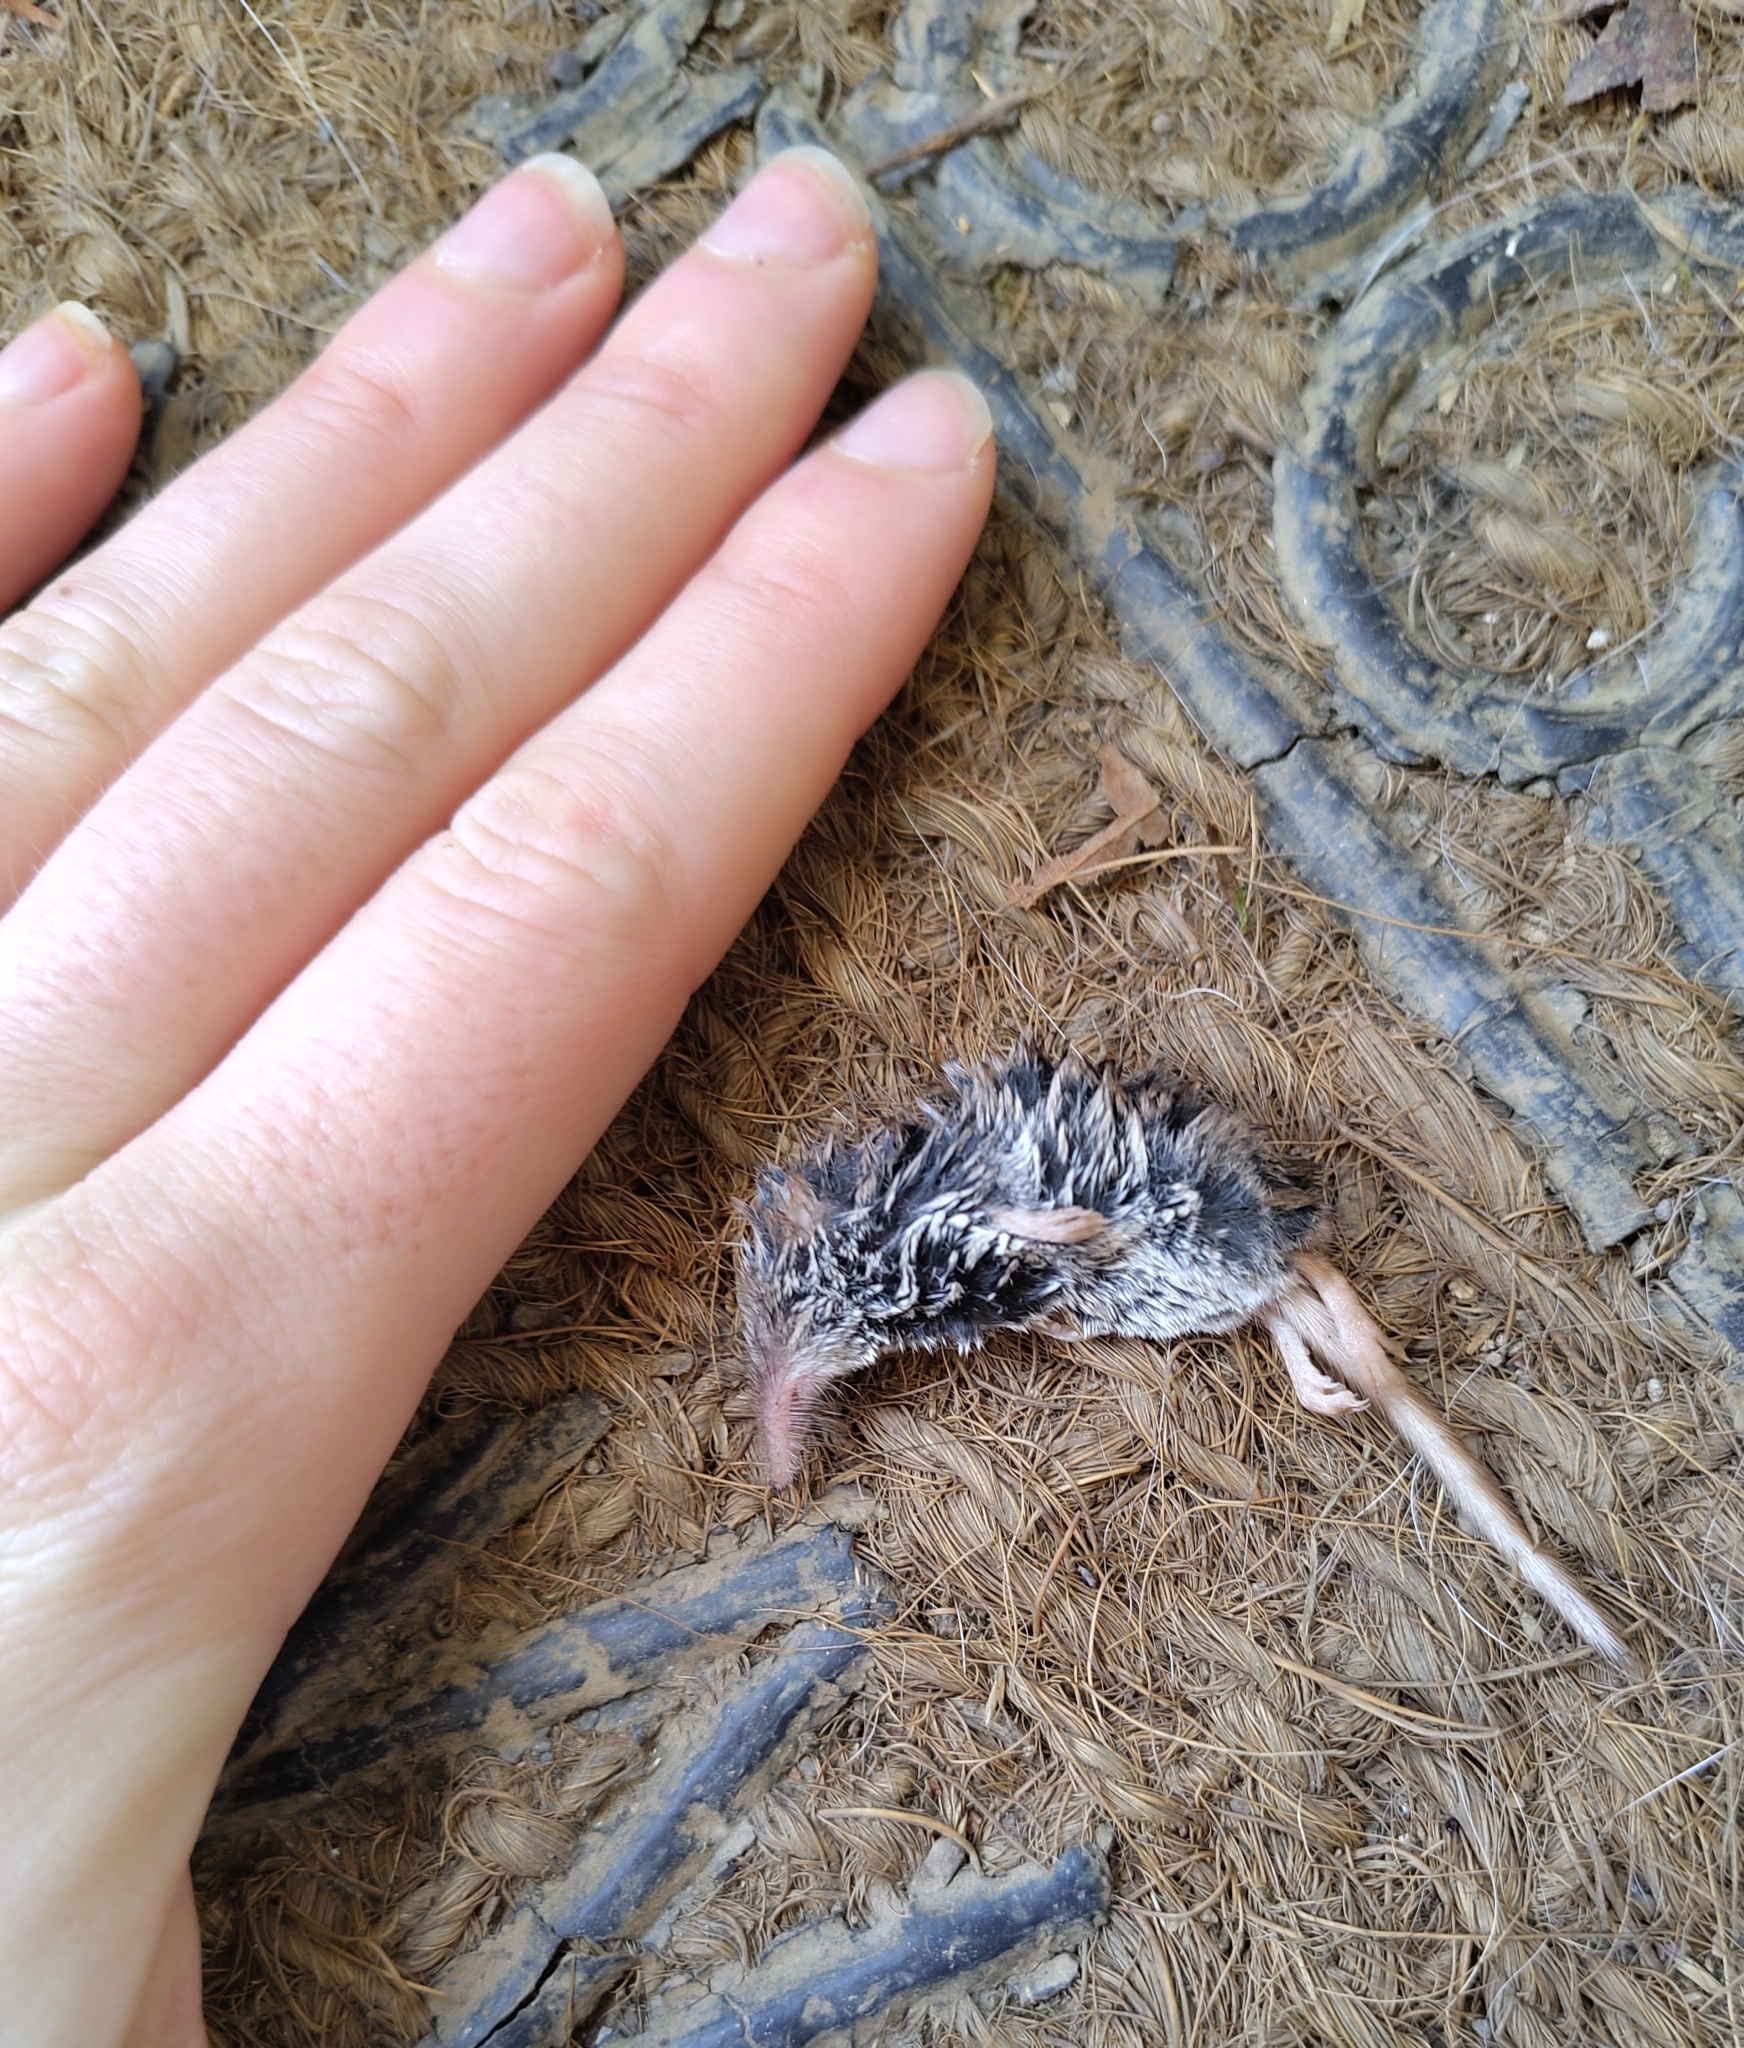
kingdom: Animalia
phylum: Chordata
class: Mammalia
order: Soricomorpha
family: Soricidae
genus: Sorex
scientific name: Sorex minutus
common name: Eurasian pygmy shrew
